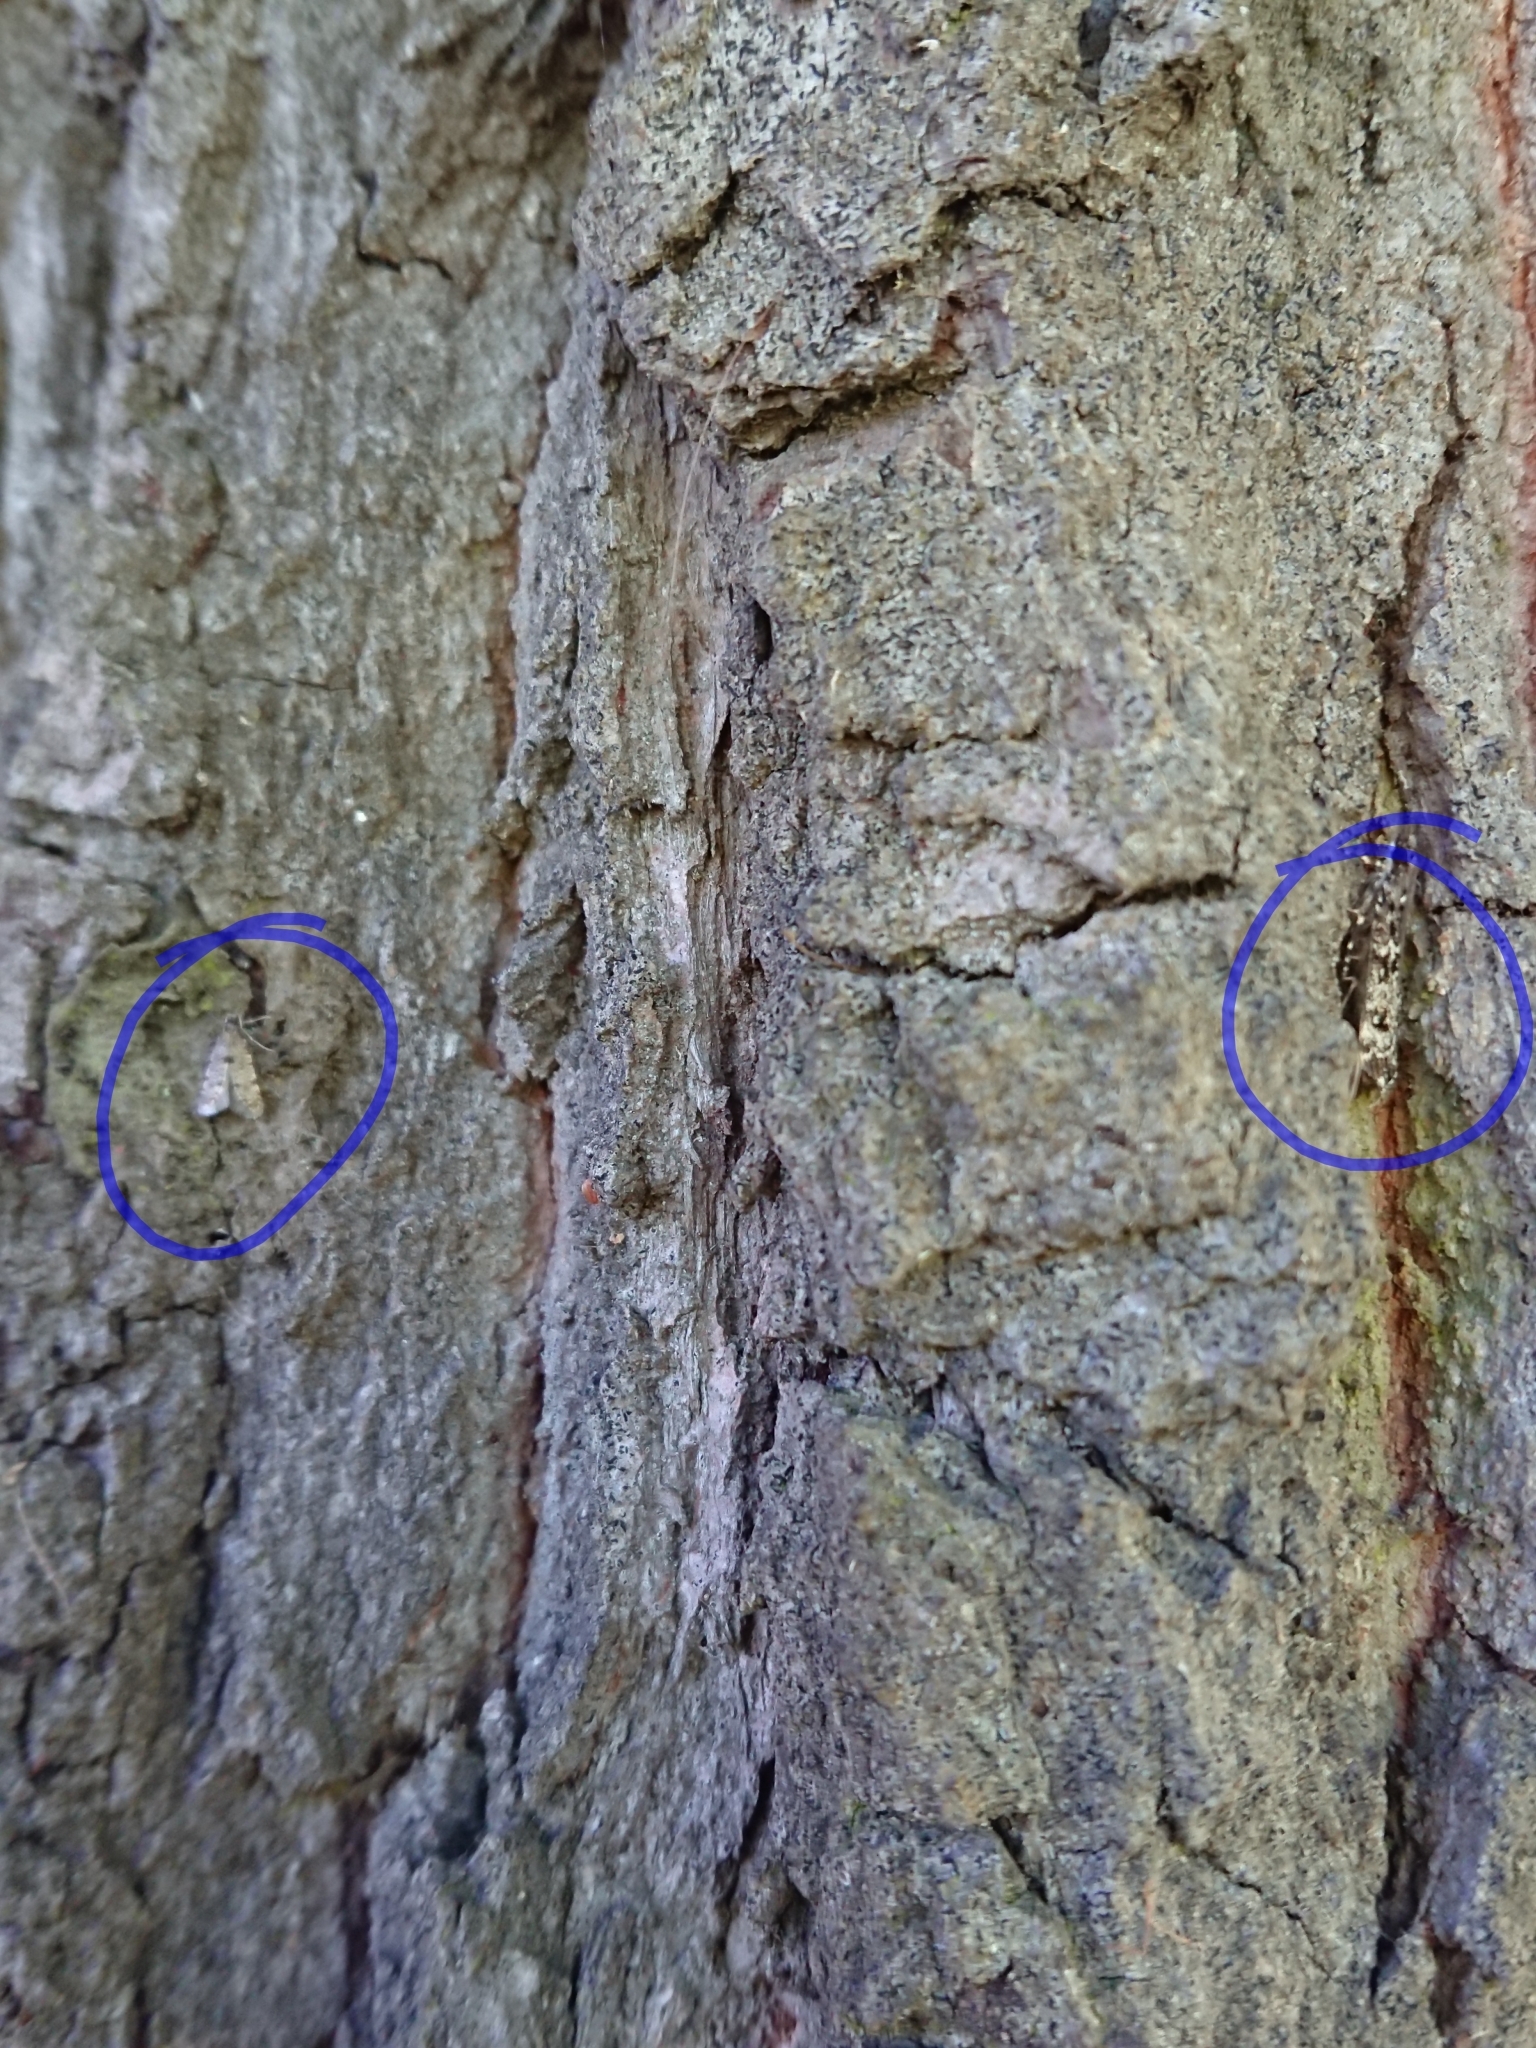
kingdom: Animalia
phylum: Arthropoda
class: Insecta
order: Lepidoptera
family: Crambidae
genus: Eudonia
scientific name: Eudonia philerga
